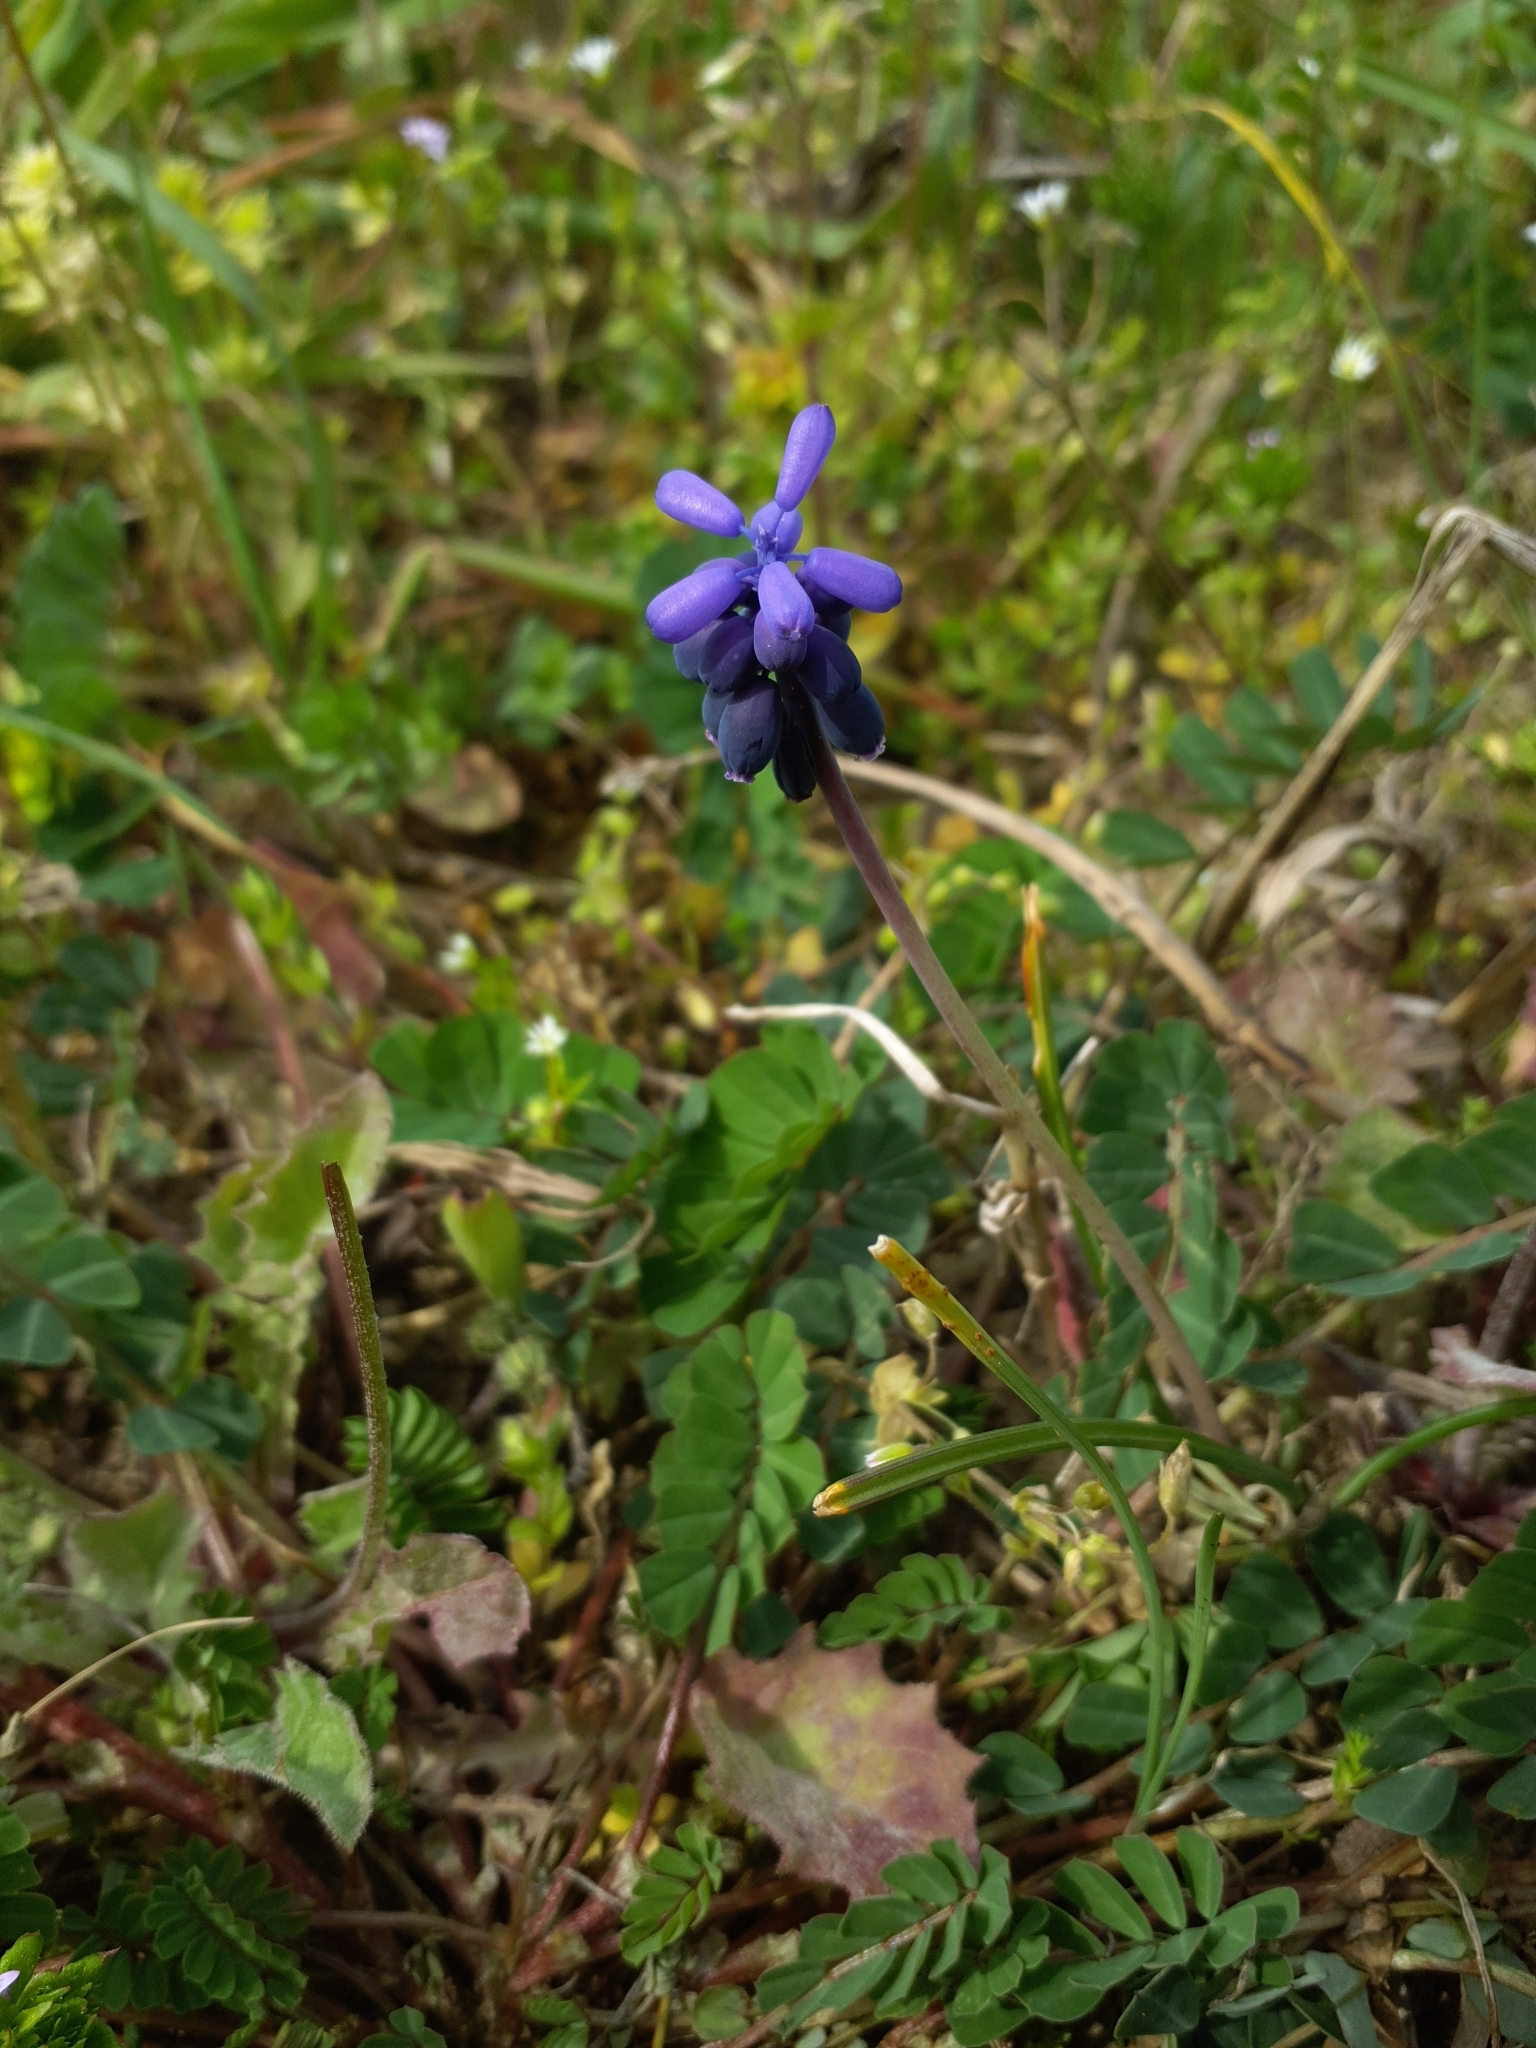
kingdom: Plantae
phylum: Tracheophyta
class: Liliopsida
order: Asparagales
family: Asparagaceae
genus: Muscari
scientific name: Muscari neglectum
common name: Grape-hyacinth
